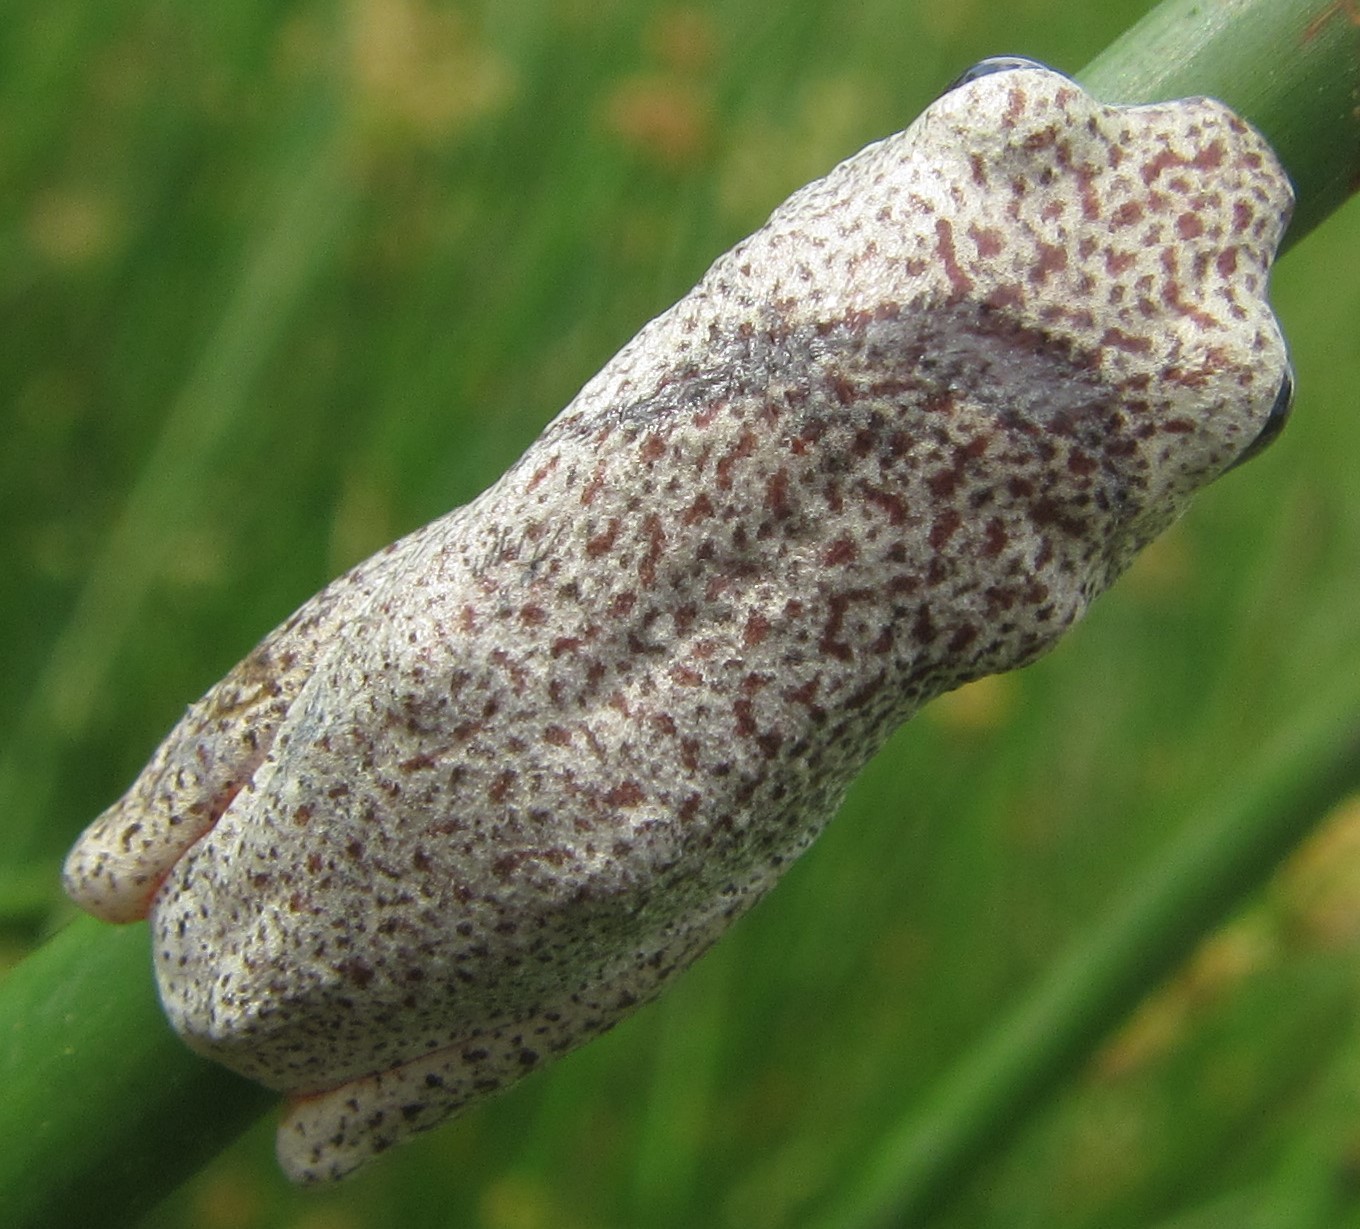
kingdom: Animalia
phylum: Chordata
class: Amphibia
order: Anura
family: Hyperoliidae
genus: Hyperolius
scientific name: Hyperolius parallelus
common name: Angolan reed frog
